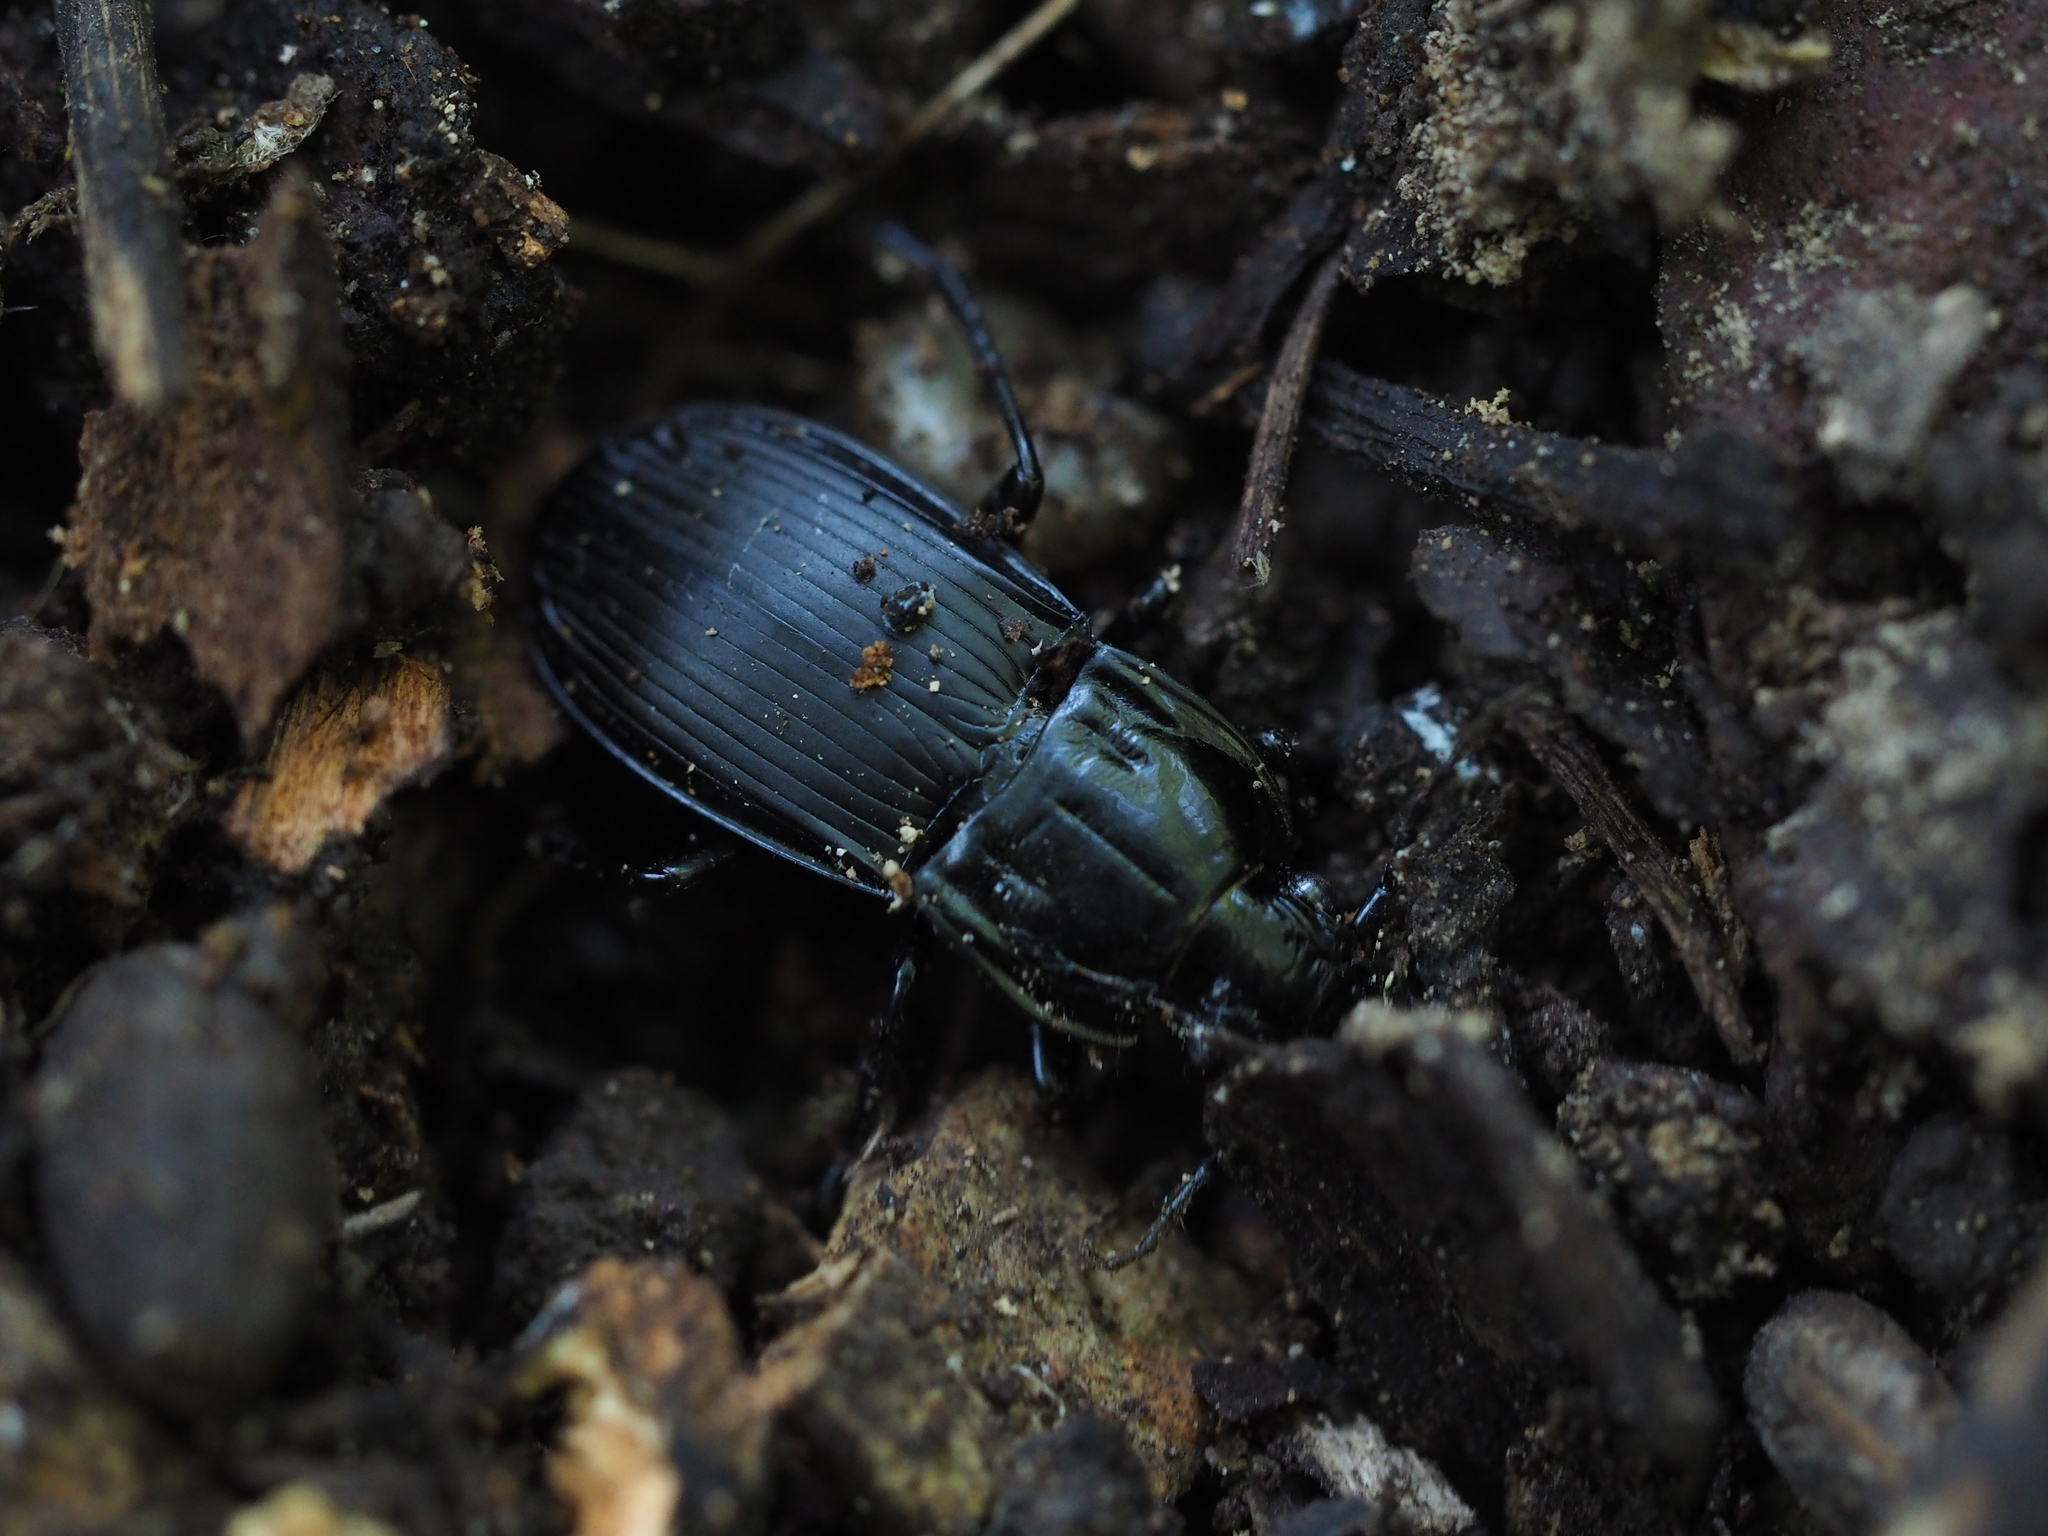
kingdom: Animalia
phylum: Arthropoda
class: Insecta
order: Coleoptera
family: Carabidae
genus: Abax
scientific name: Abax parallelepipedus
